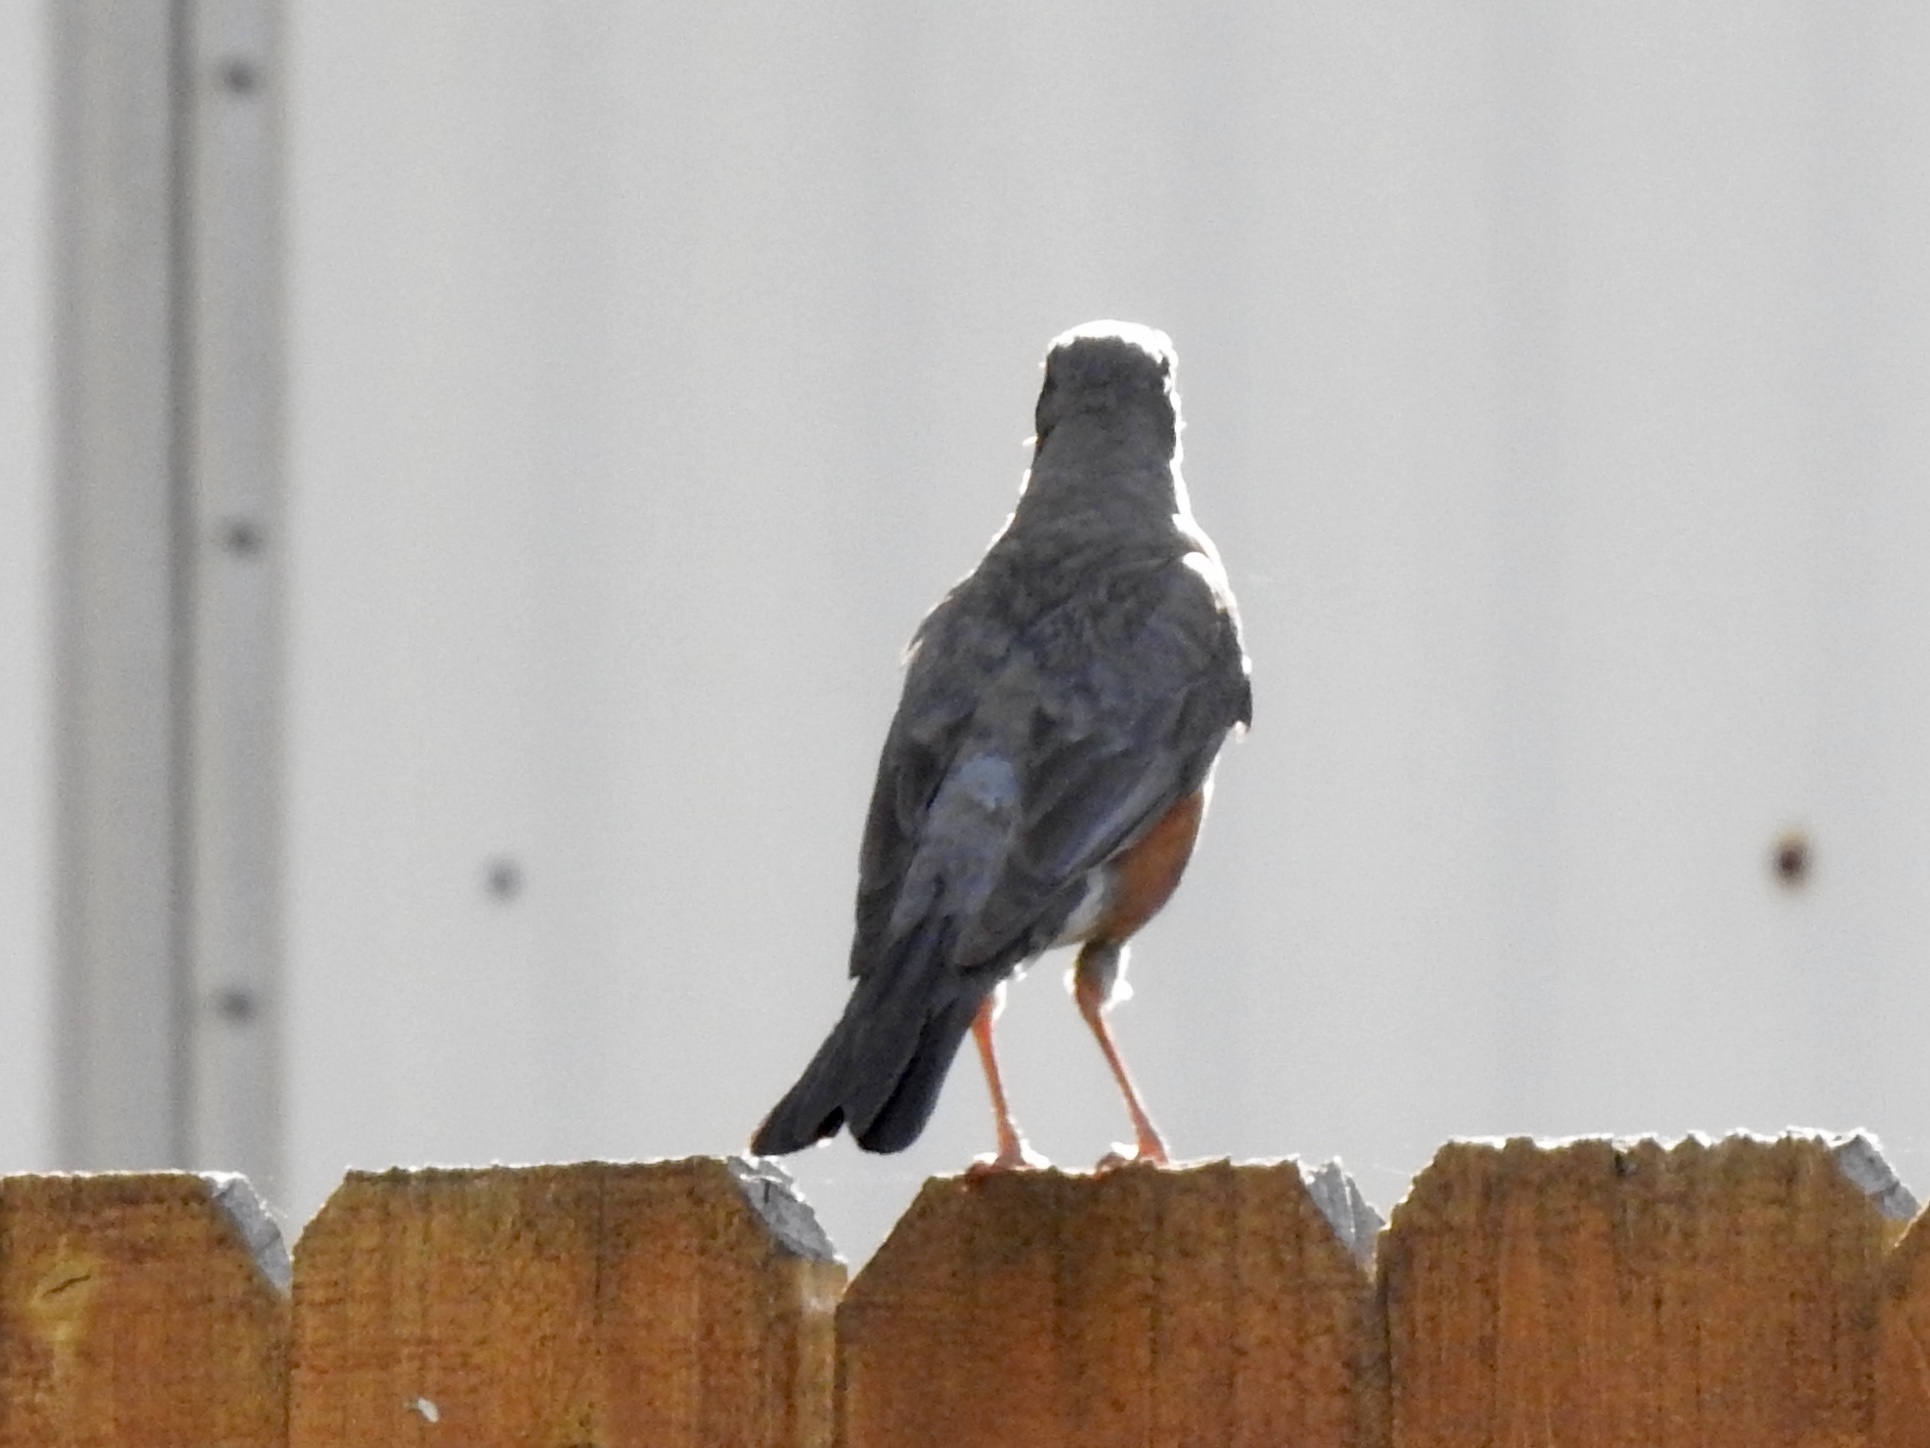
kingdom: Animalia
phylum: Chordata
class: Aves
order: Passeriformes
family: Turdidae
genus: Turdus
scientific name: Turdus migratorius
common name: American robin
